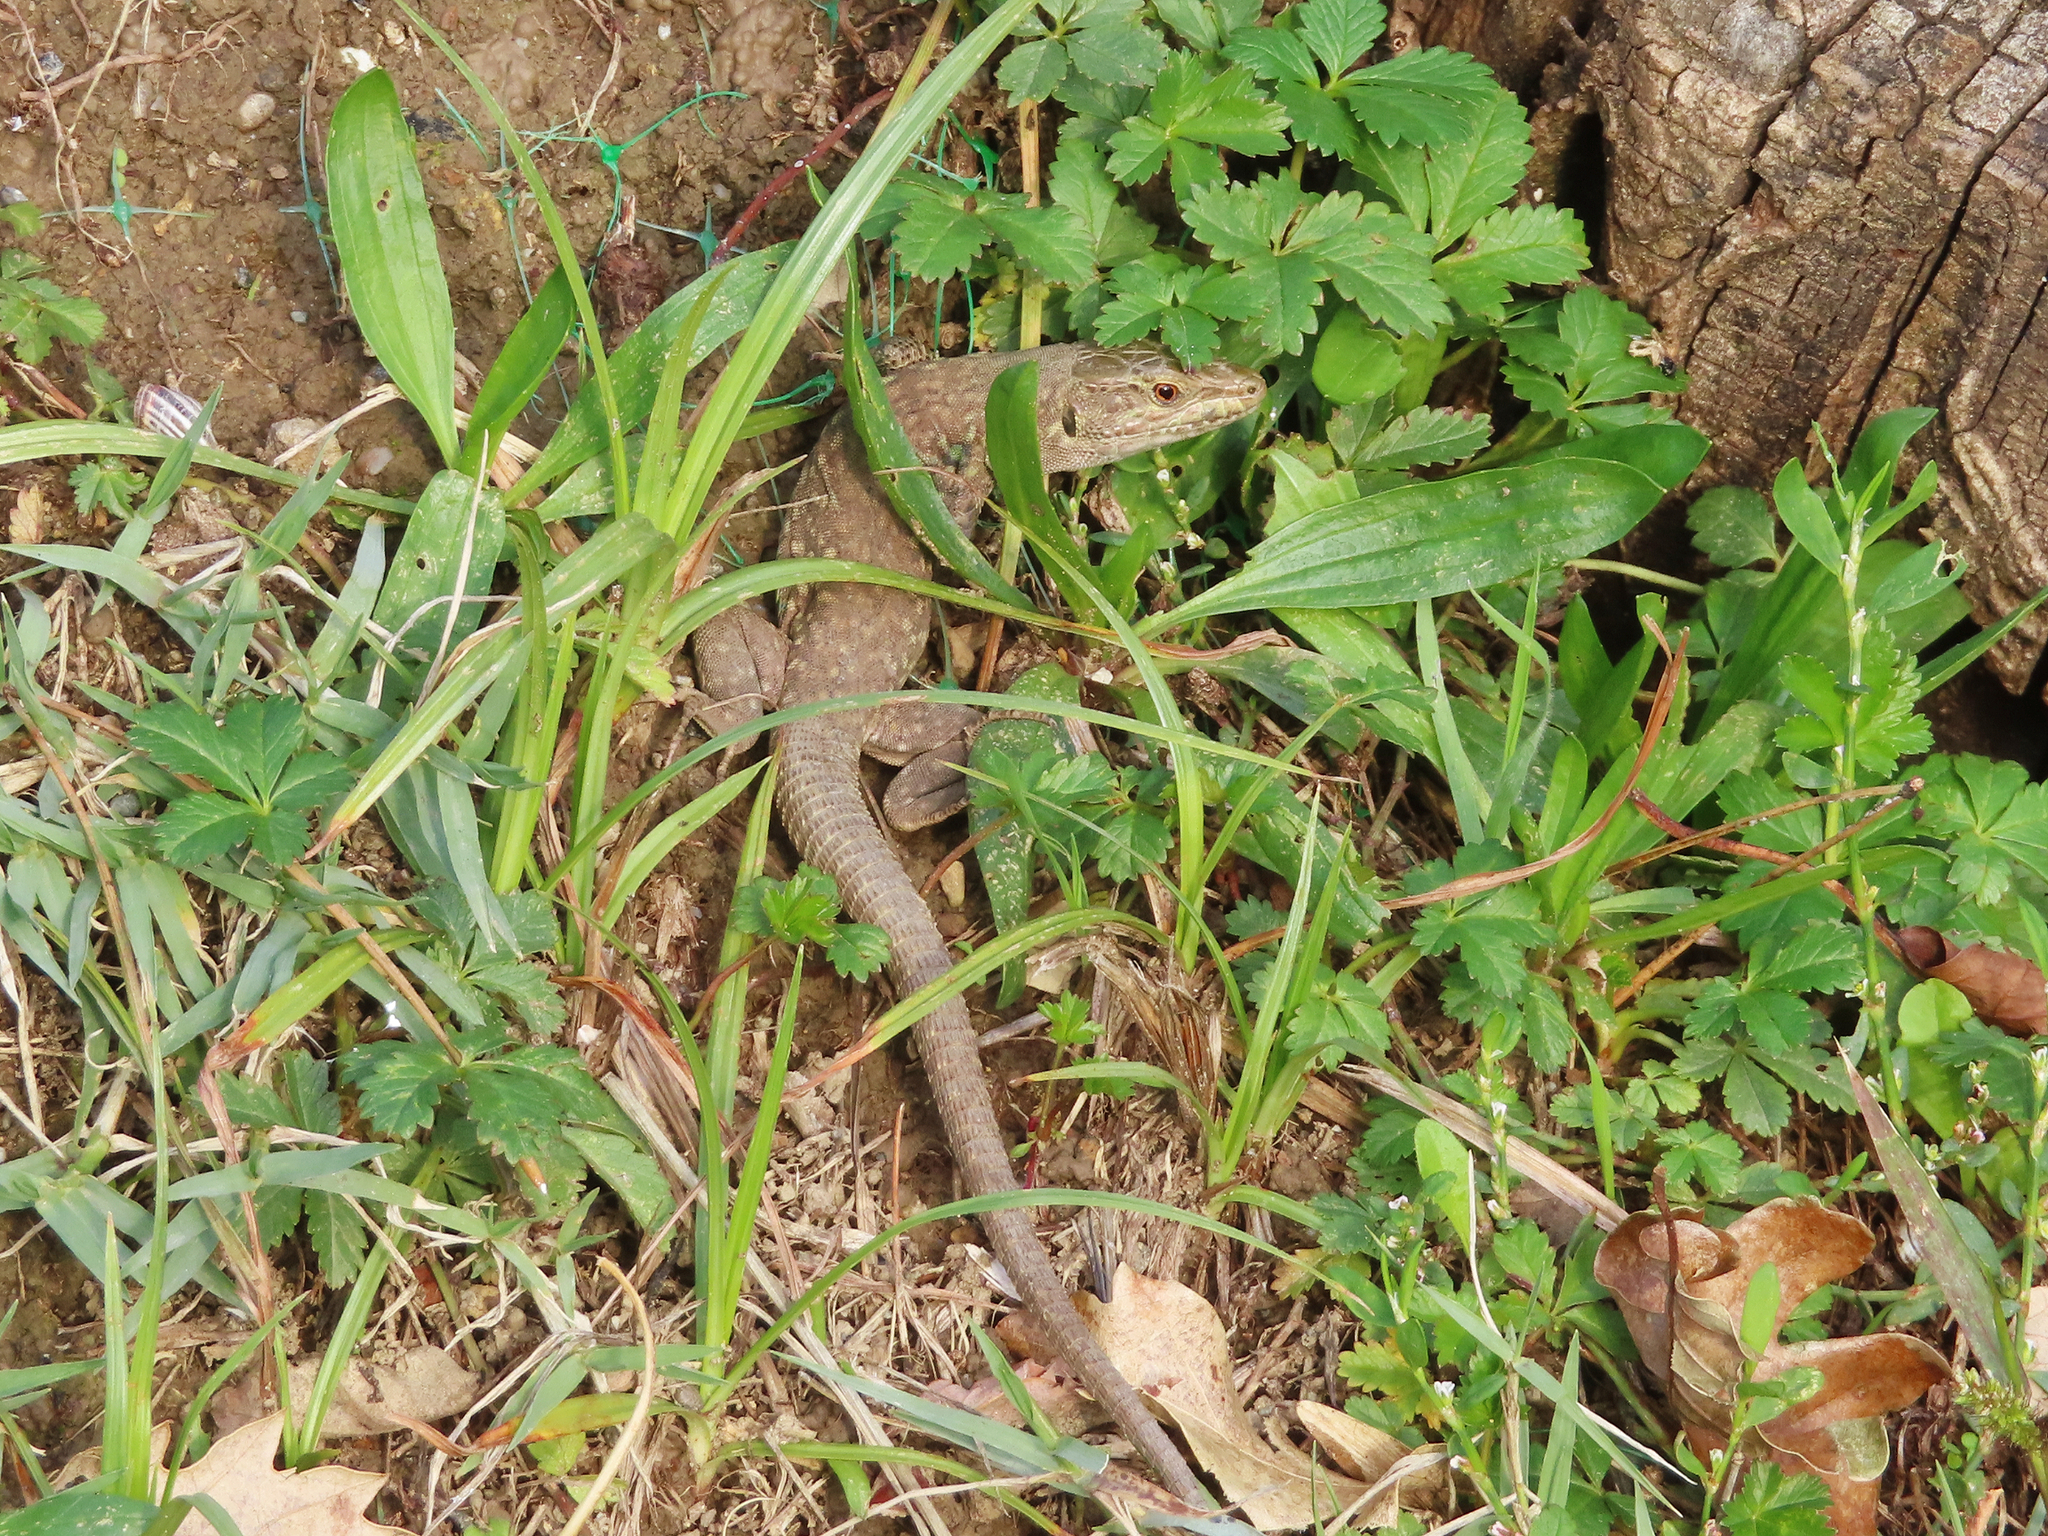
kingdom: Animalia
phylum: Chordata
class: Squamata
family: Lacertidae
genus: Podarcis
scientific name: Podarcis siculus
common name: Italian wall lizard
